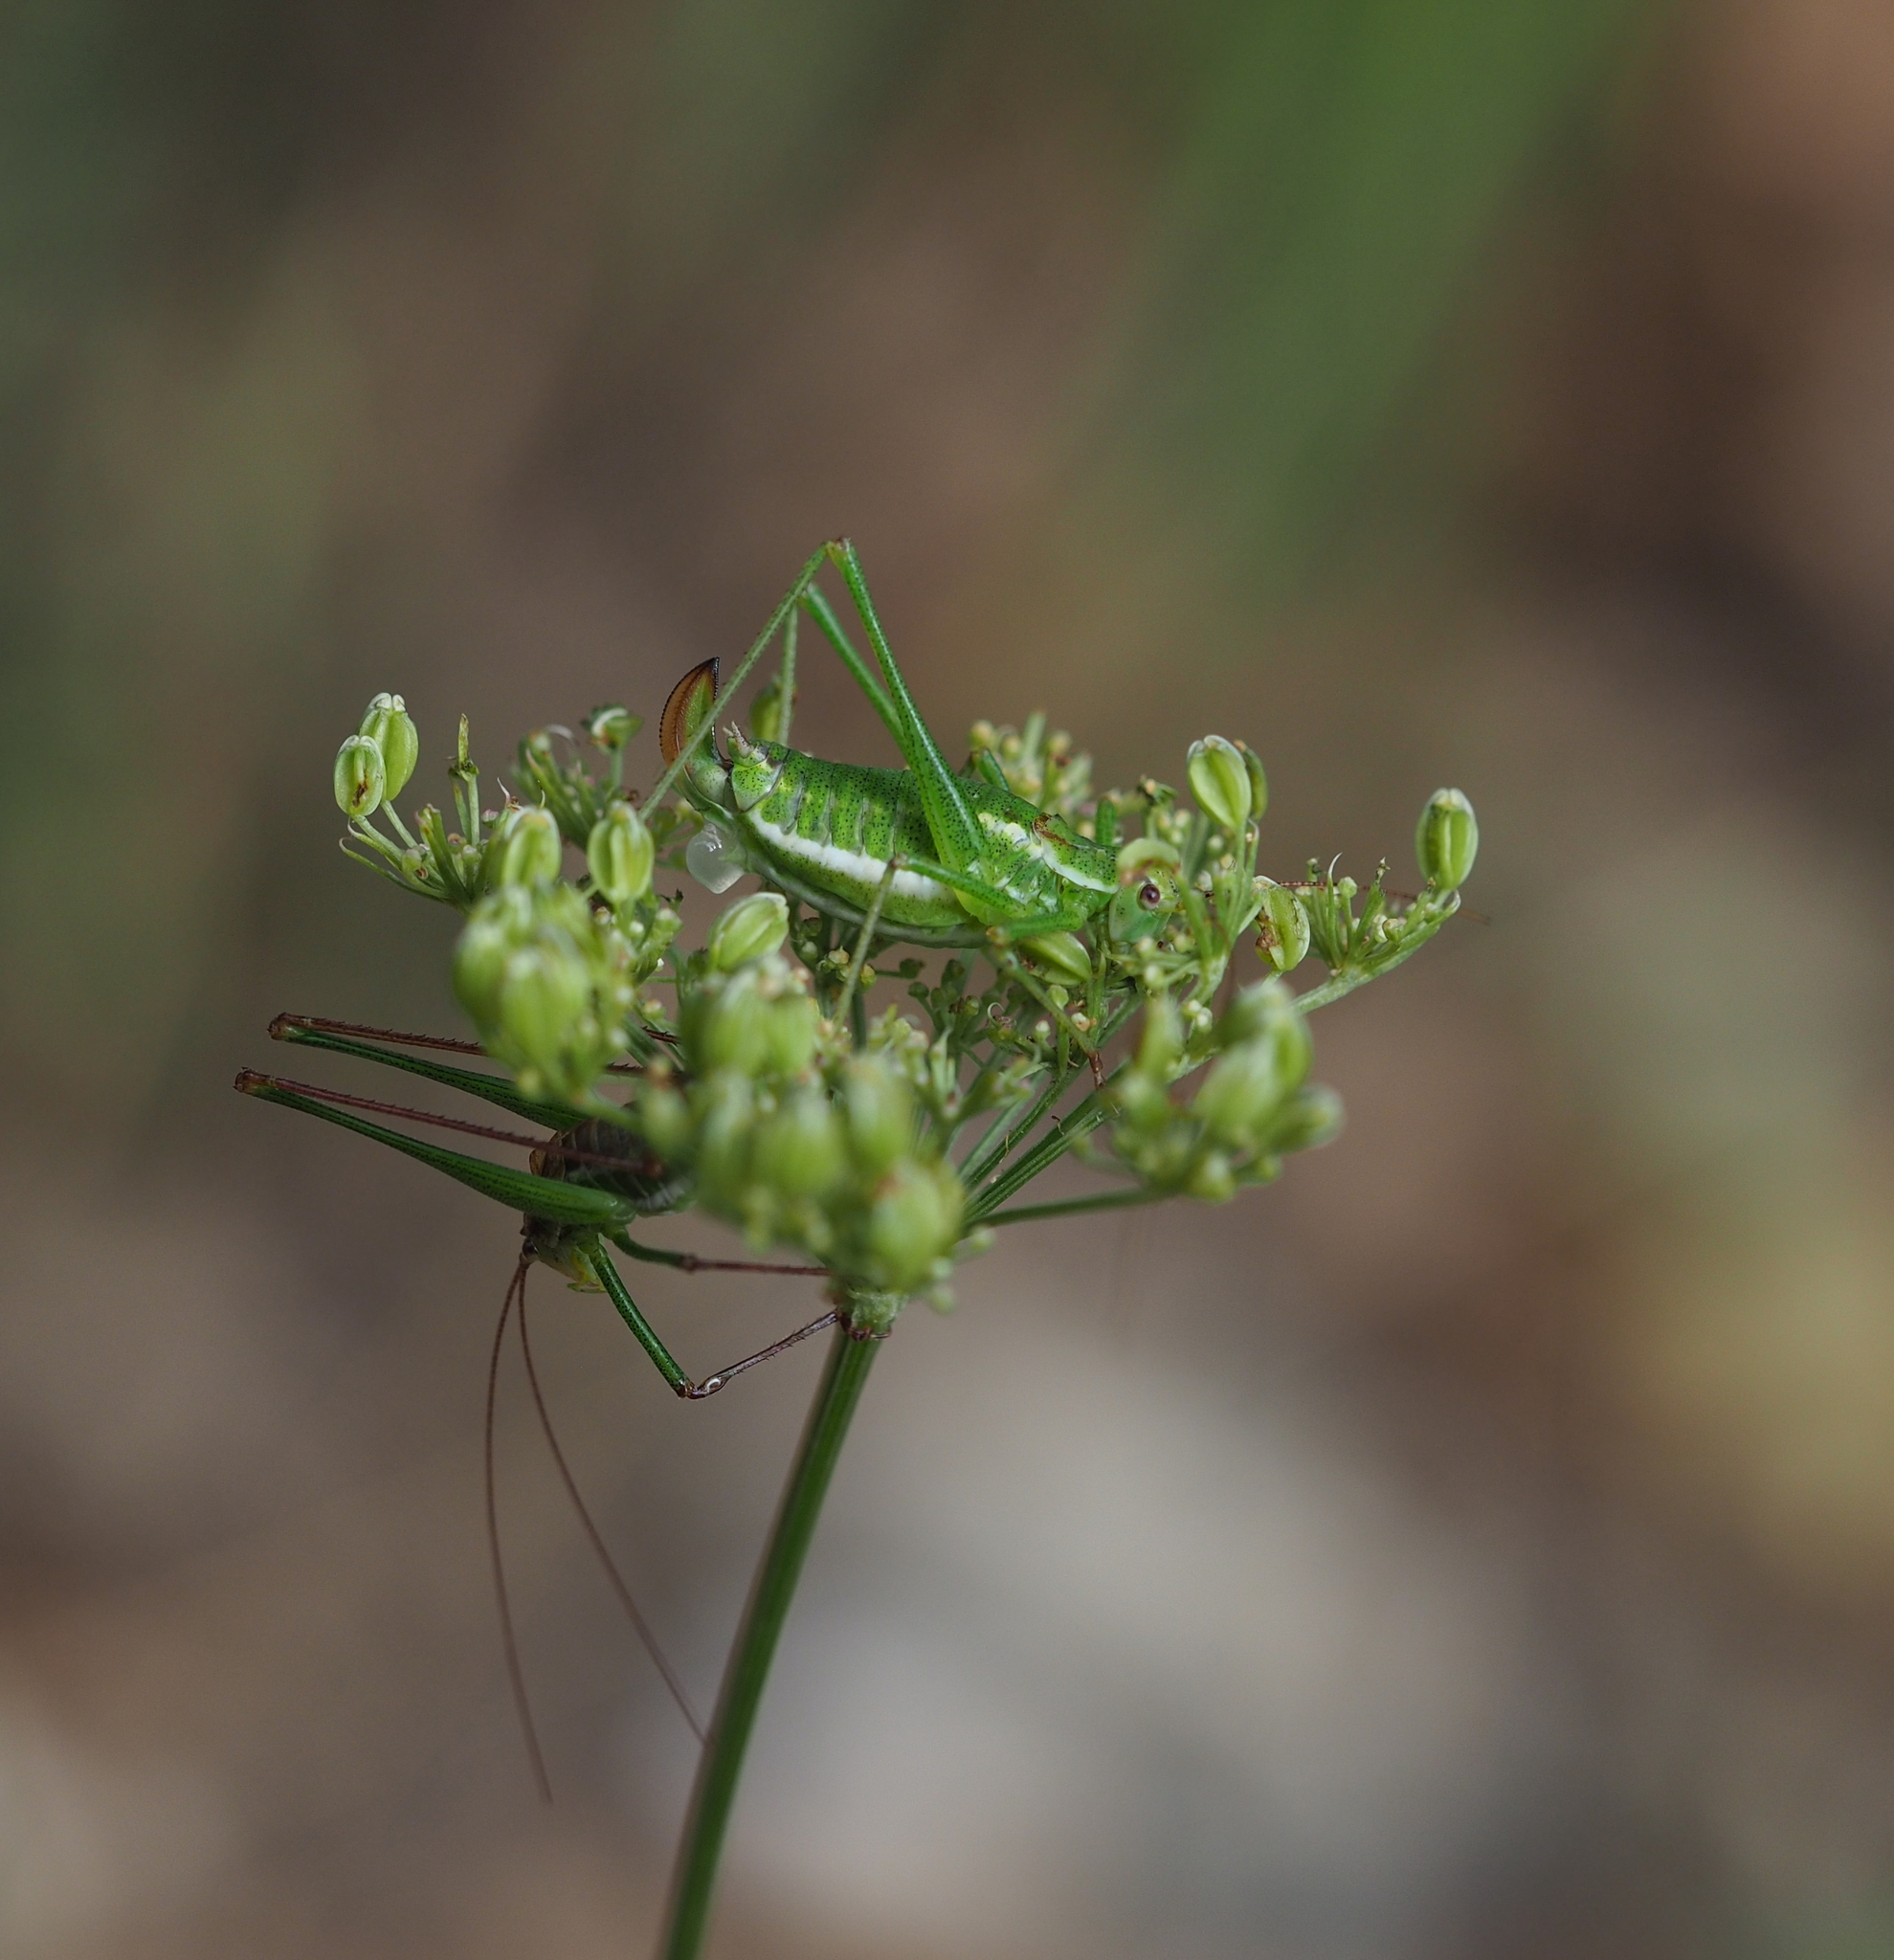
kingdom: Animalia
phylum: Arthropoda
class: Insecta
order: Orthoptera
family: Tettigoniidae
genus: Leptophyes
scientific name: Leptophyes albovittata
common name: Striped bush-cricket
